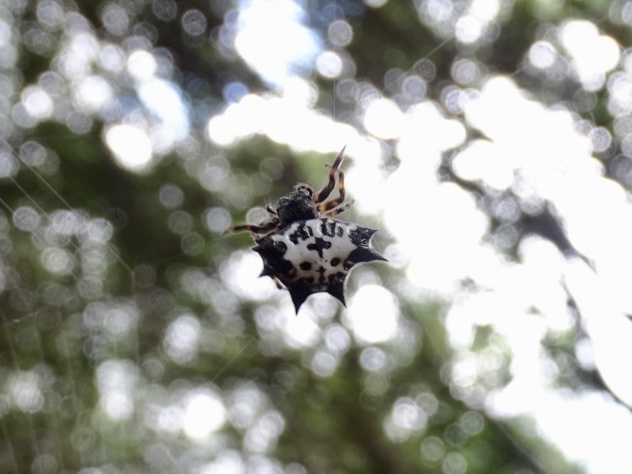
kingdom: Animalia
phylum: Arthropoda
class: Arachnida
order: Araneae
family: Araneidae
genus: Gasteracantha
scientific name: Gasteracantha kuhli
